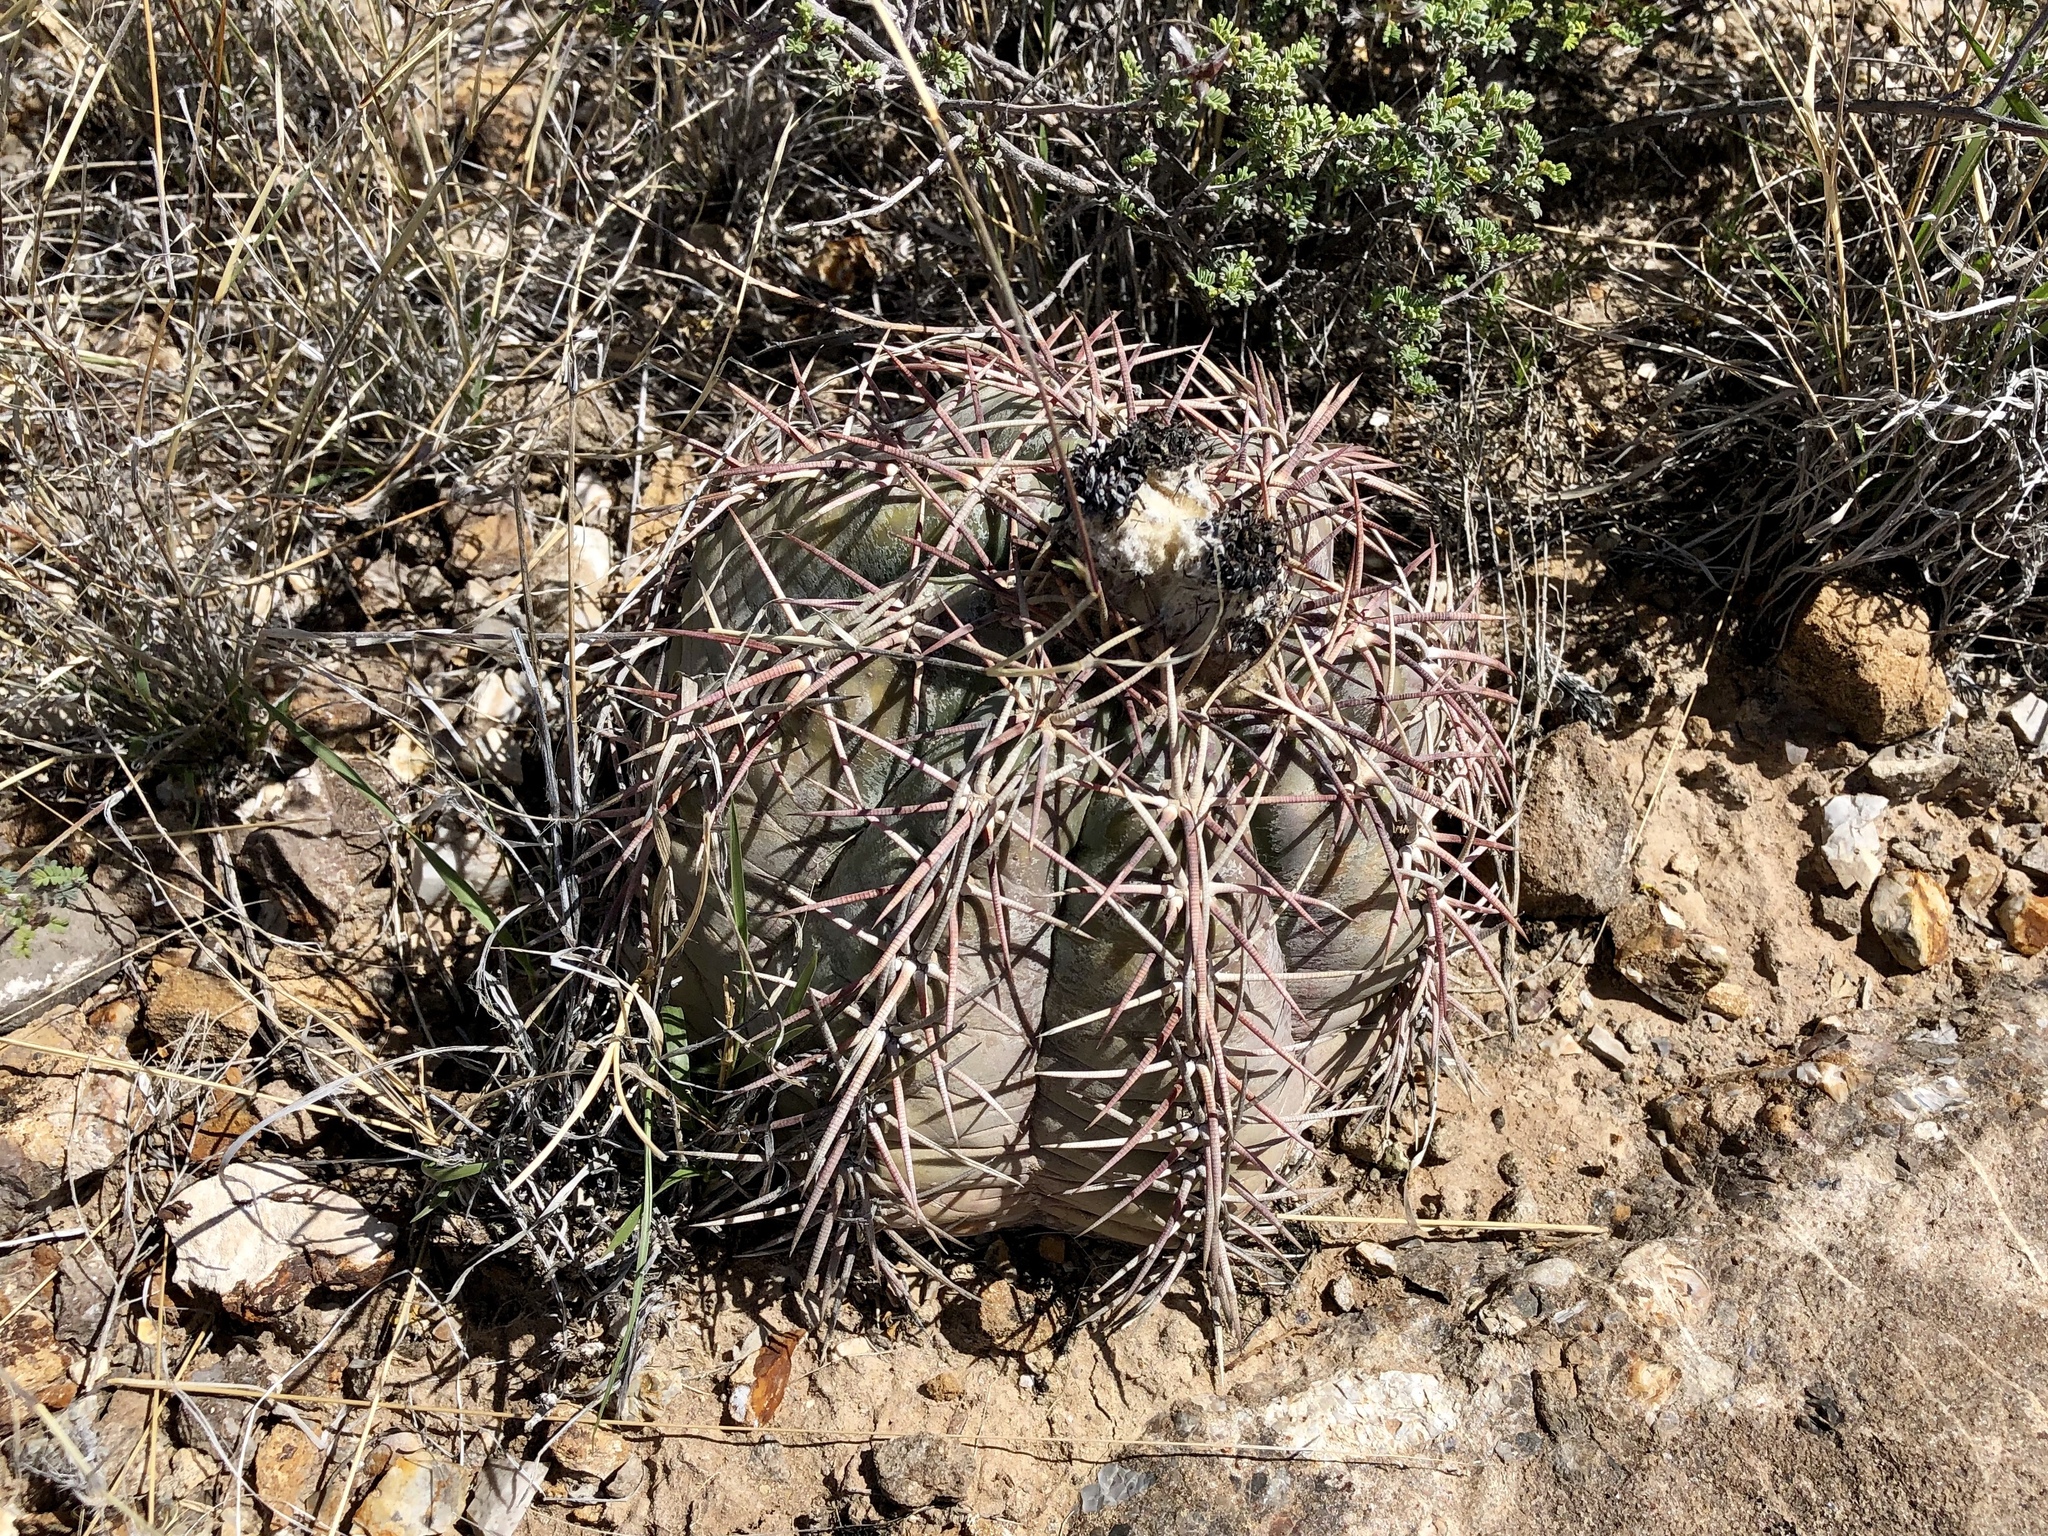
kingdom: Plantae
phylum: Tracheophyta
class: Magnoliopsida
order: Caryophyllales
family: Cactaceae
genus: Echinocactus
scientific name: Echinocactus horizonthalonius
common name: Devilshead
